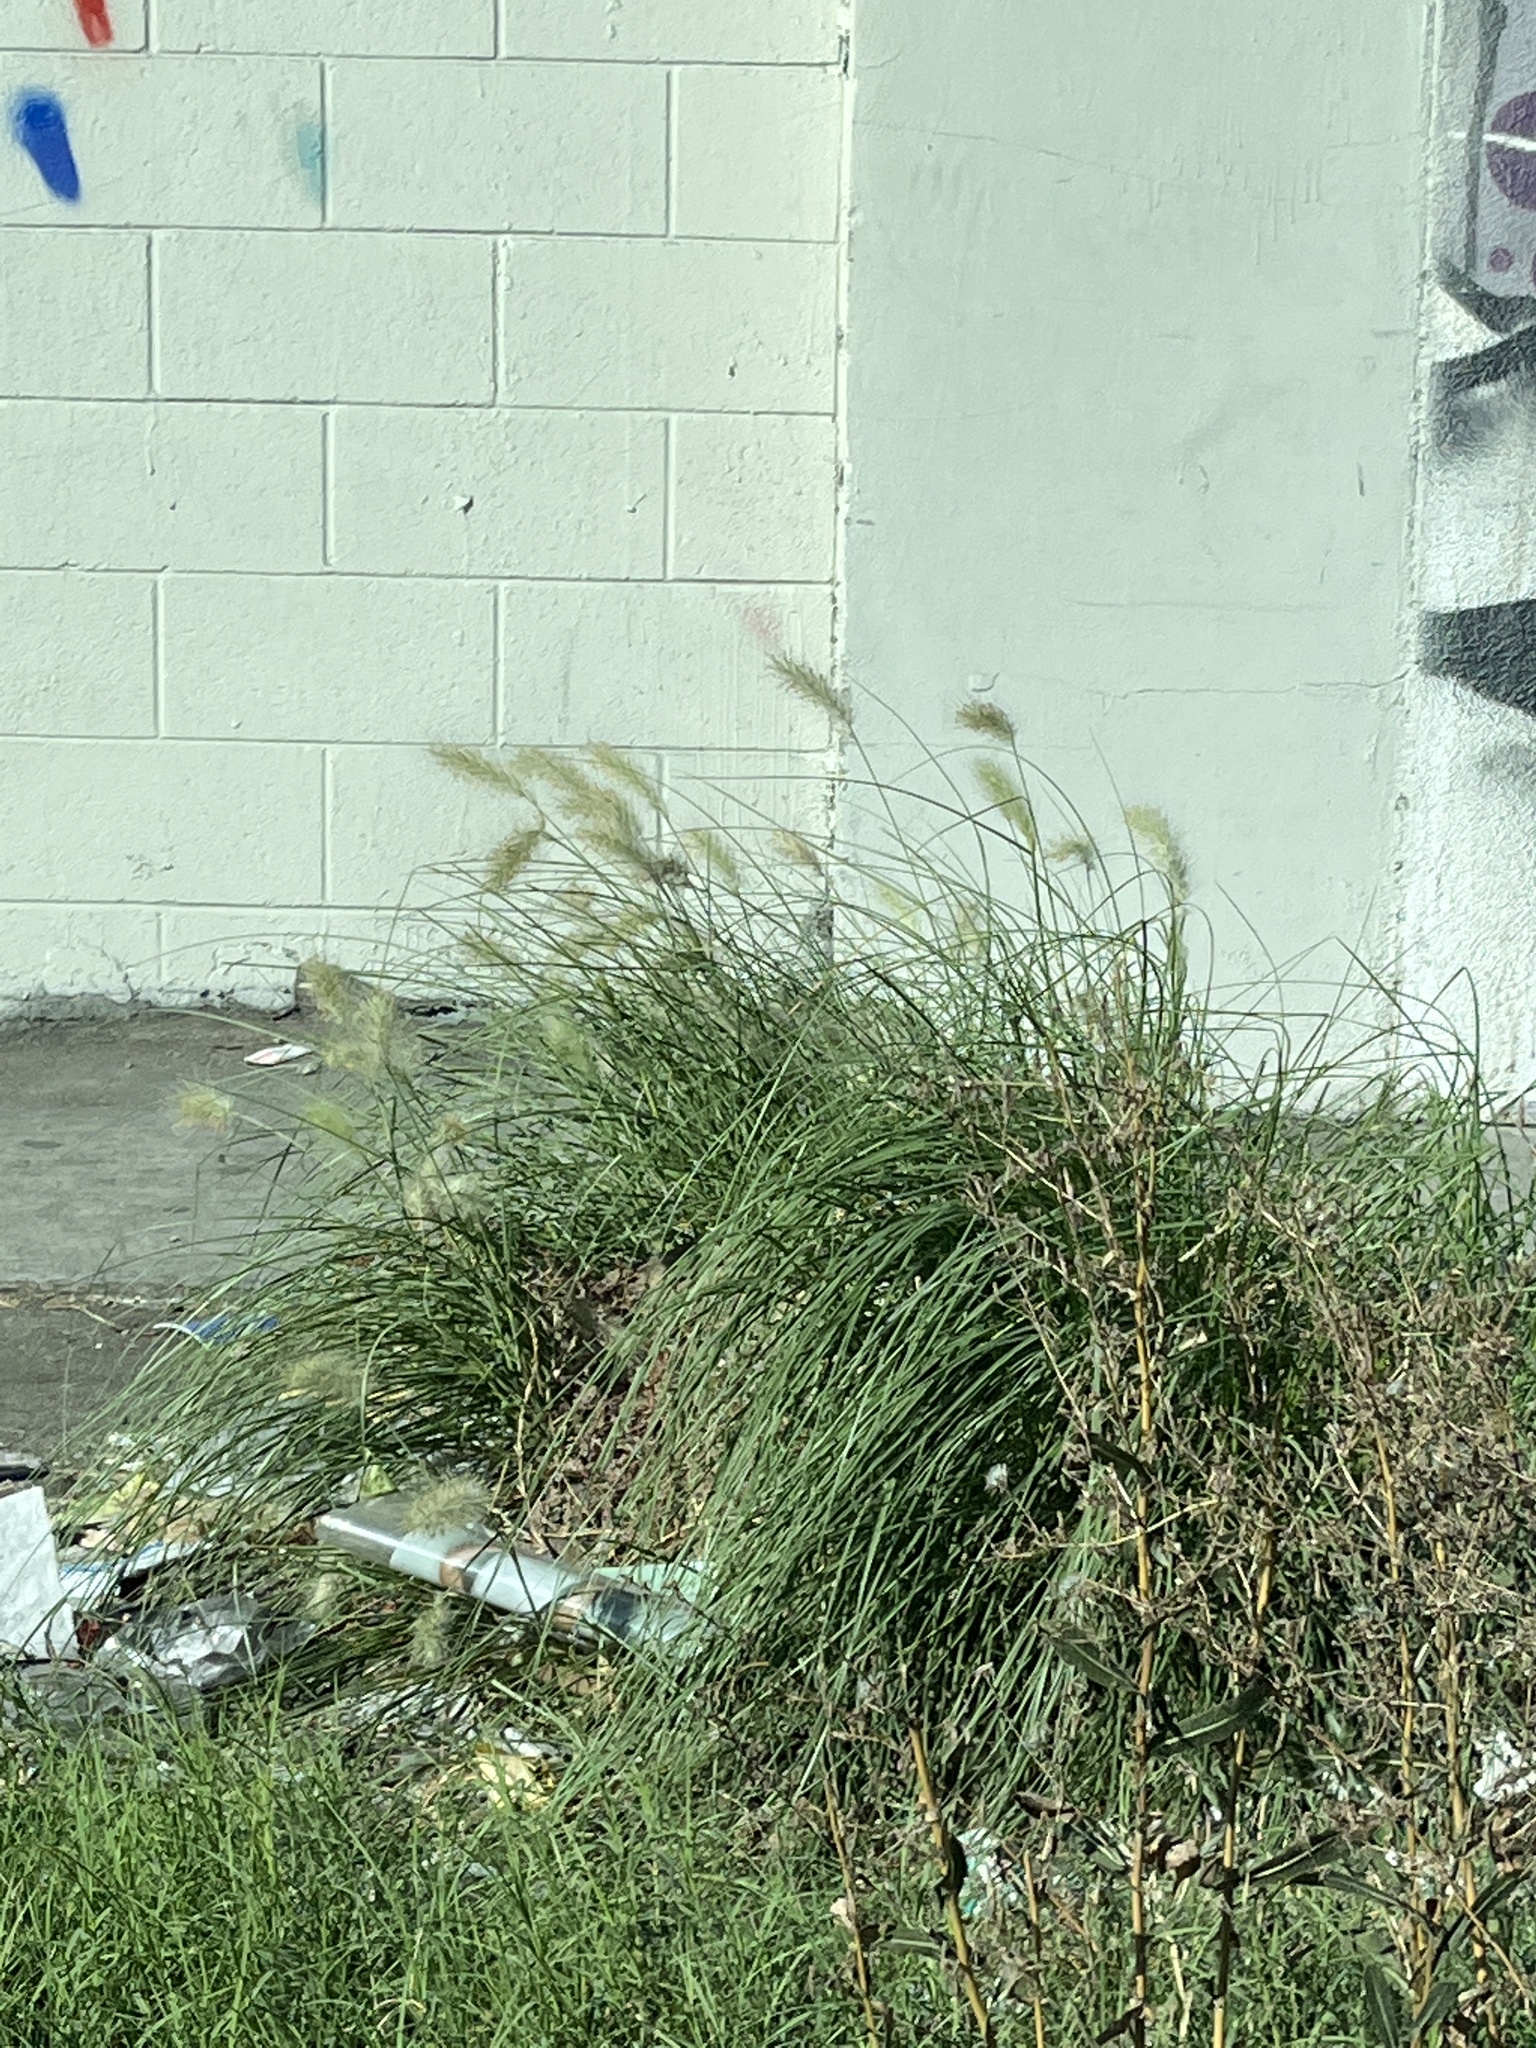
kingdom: Plantae
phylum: Tracheophyta
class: Liliopsida
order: Poales
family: Poaceae
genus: Cenchrus
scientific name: Cenchrus setaceus
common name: Crimson fountaingrass
